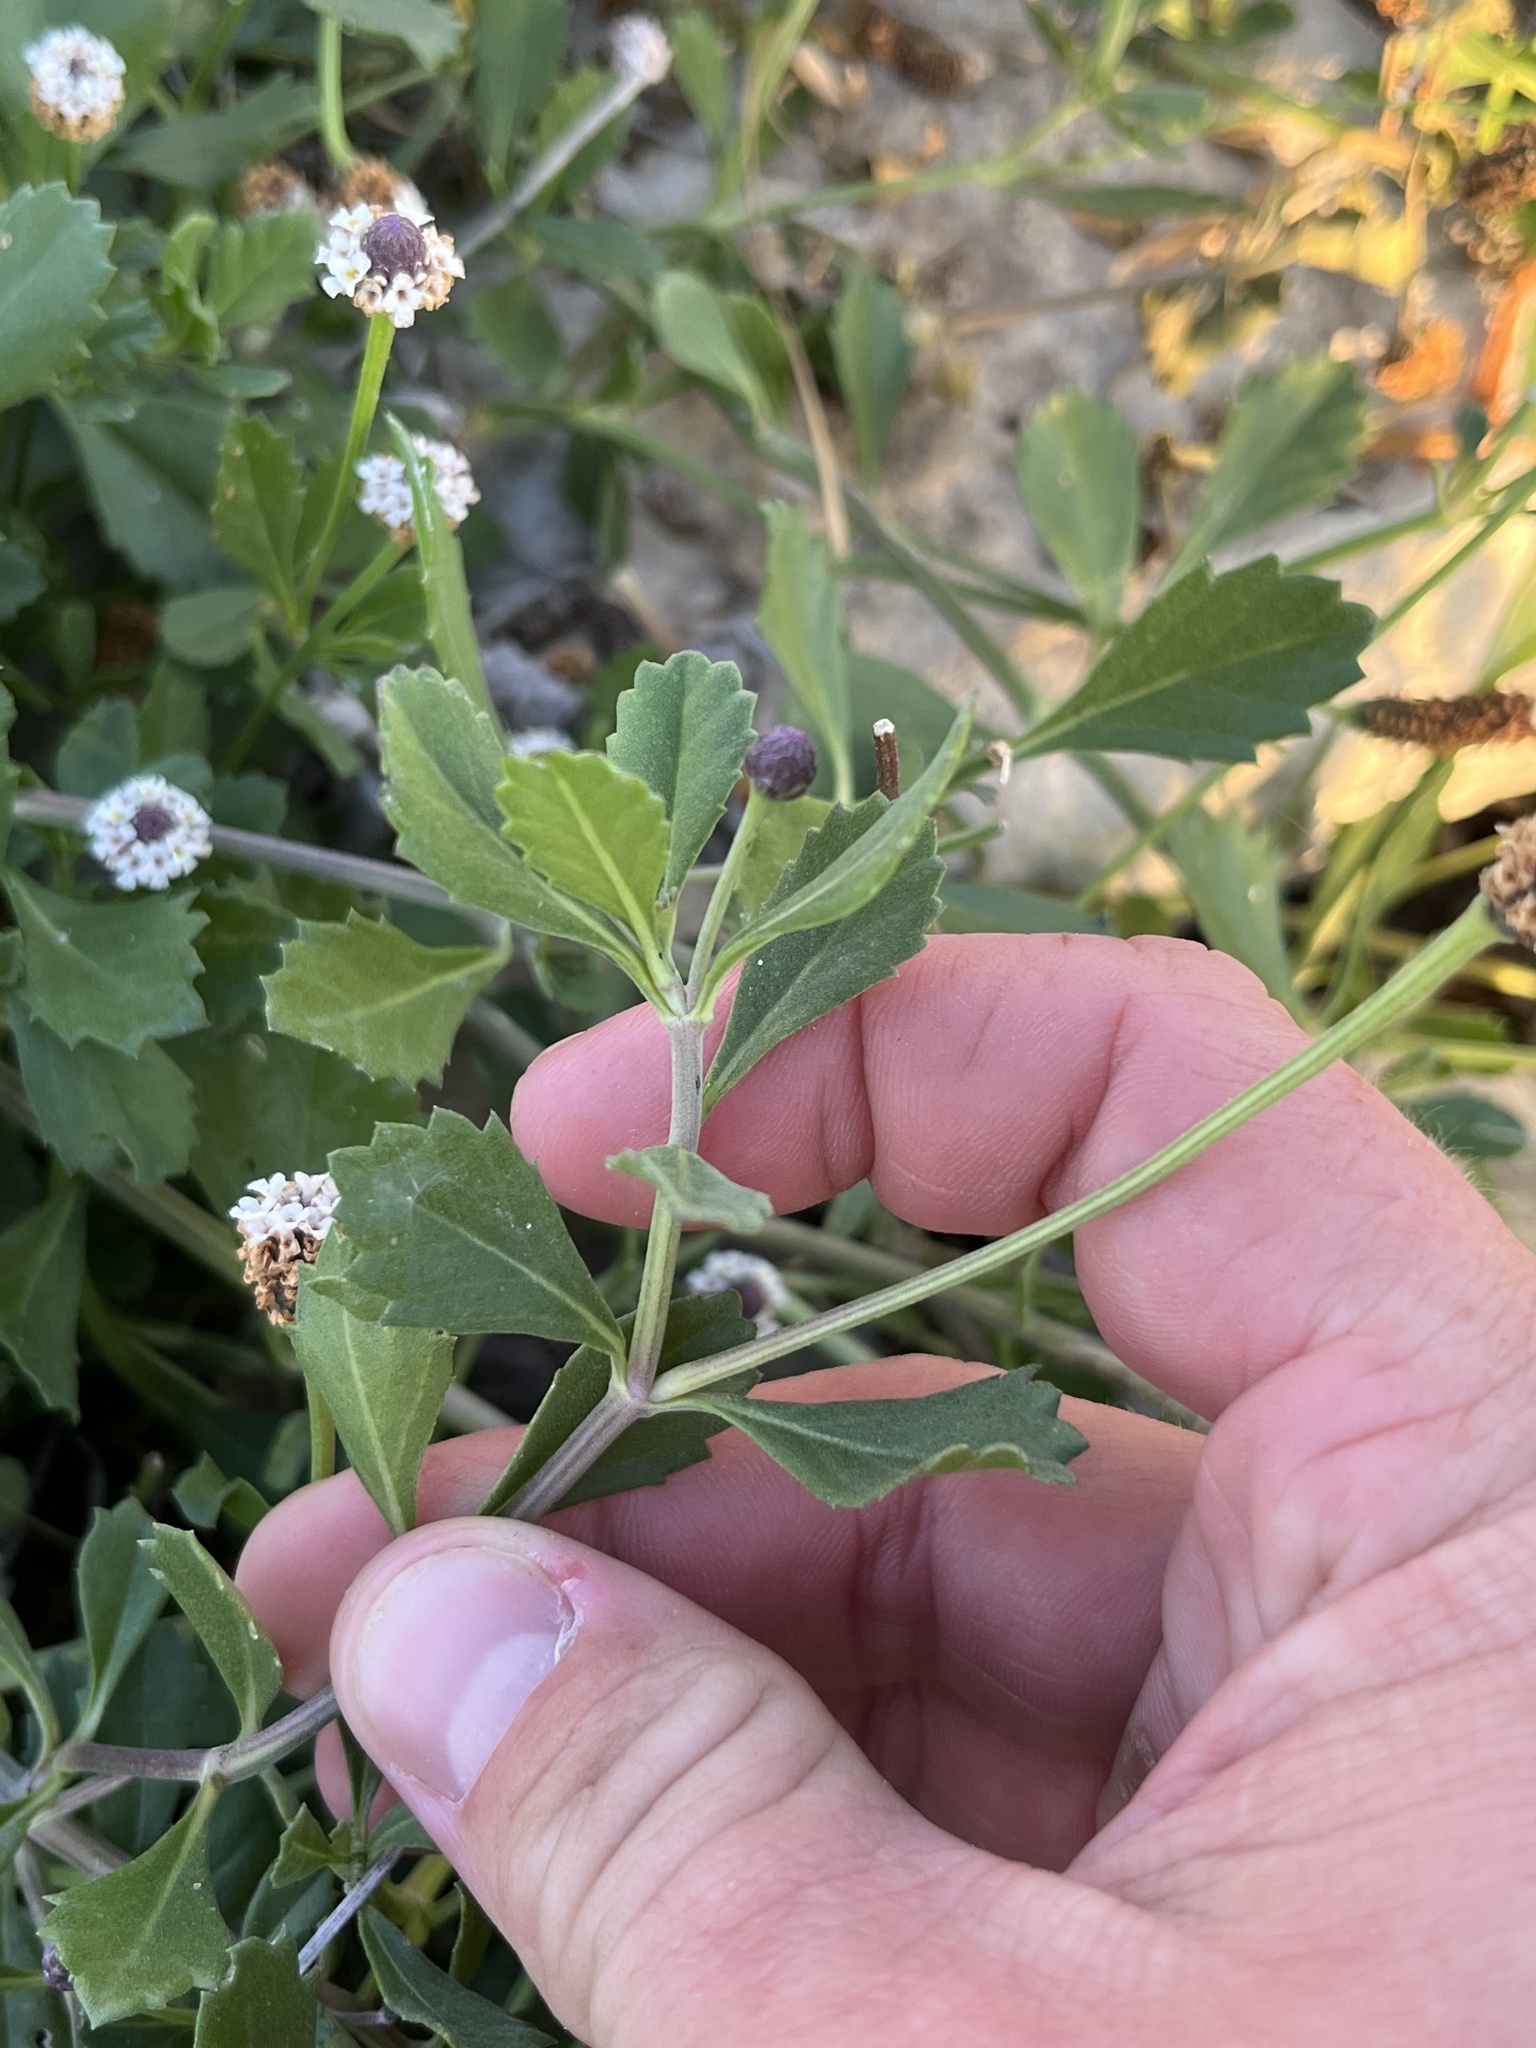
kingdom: Plantae
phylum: Tracheophyta
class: Magnoliopsida
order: Lamiales
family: Verbenaceae
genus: Phyla
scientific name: Phyla nodiflora
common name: Frogfruit
